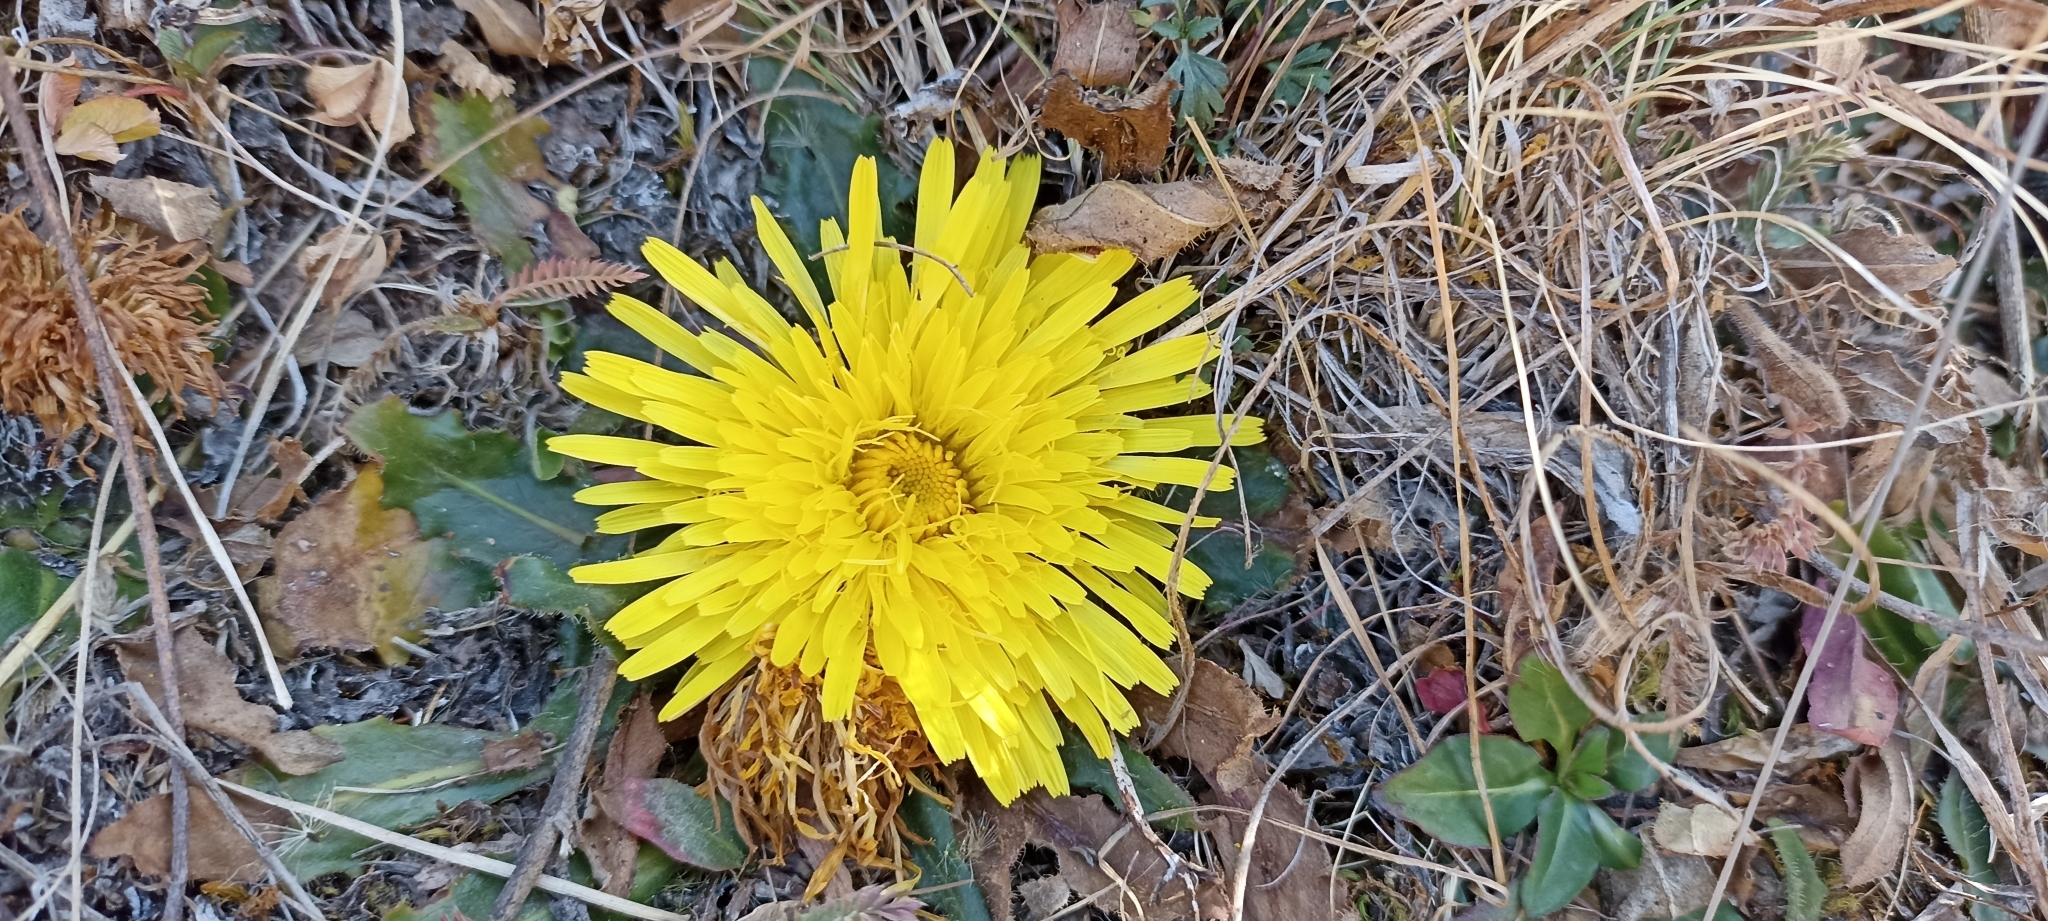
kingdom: Plantae
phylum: Tracheophyta
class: Magnoliopsida
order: Asterales
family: Asteraceae
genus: Hypochaeris
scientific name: Hypochaeris meyeniana
